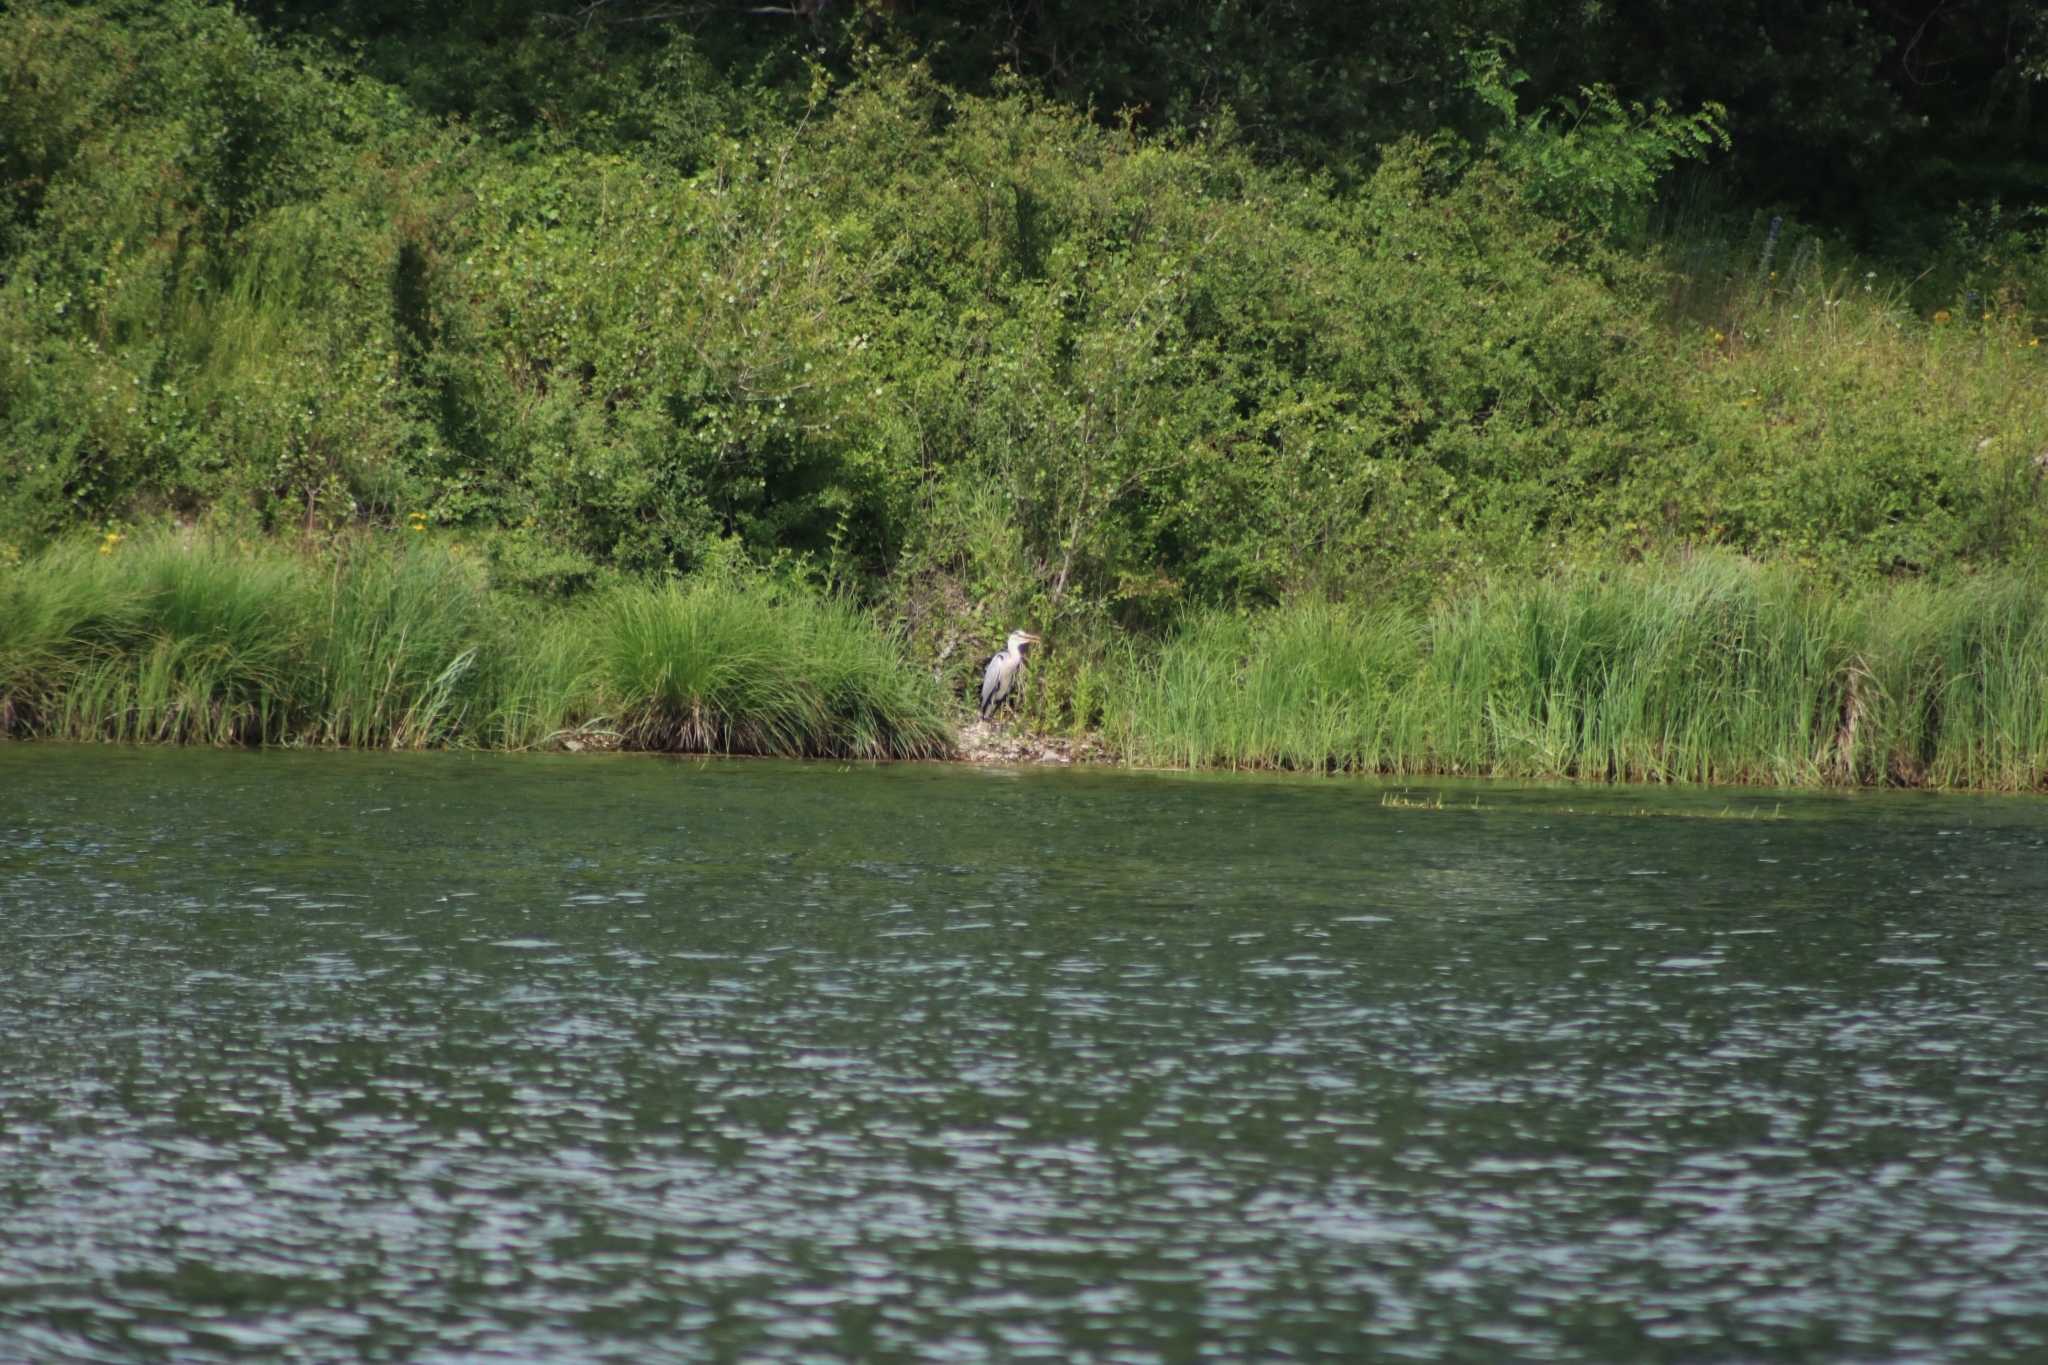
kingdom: Animalia
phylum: Chordata
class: Aves
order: Pelecaniformes
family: Ardeidae
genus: Ardea
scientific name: Ardea cinerea
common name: Grey heron
